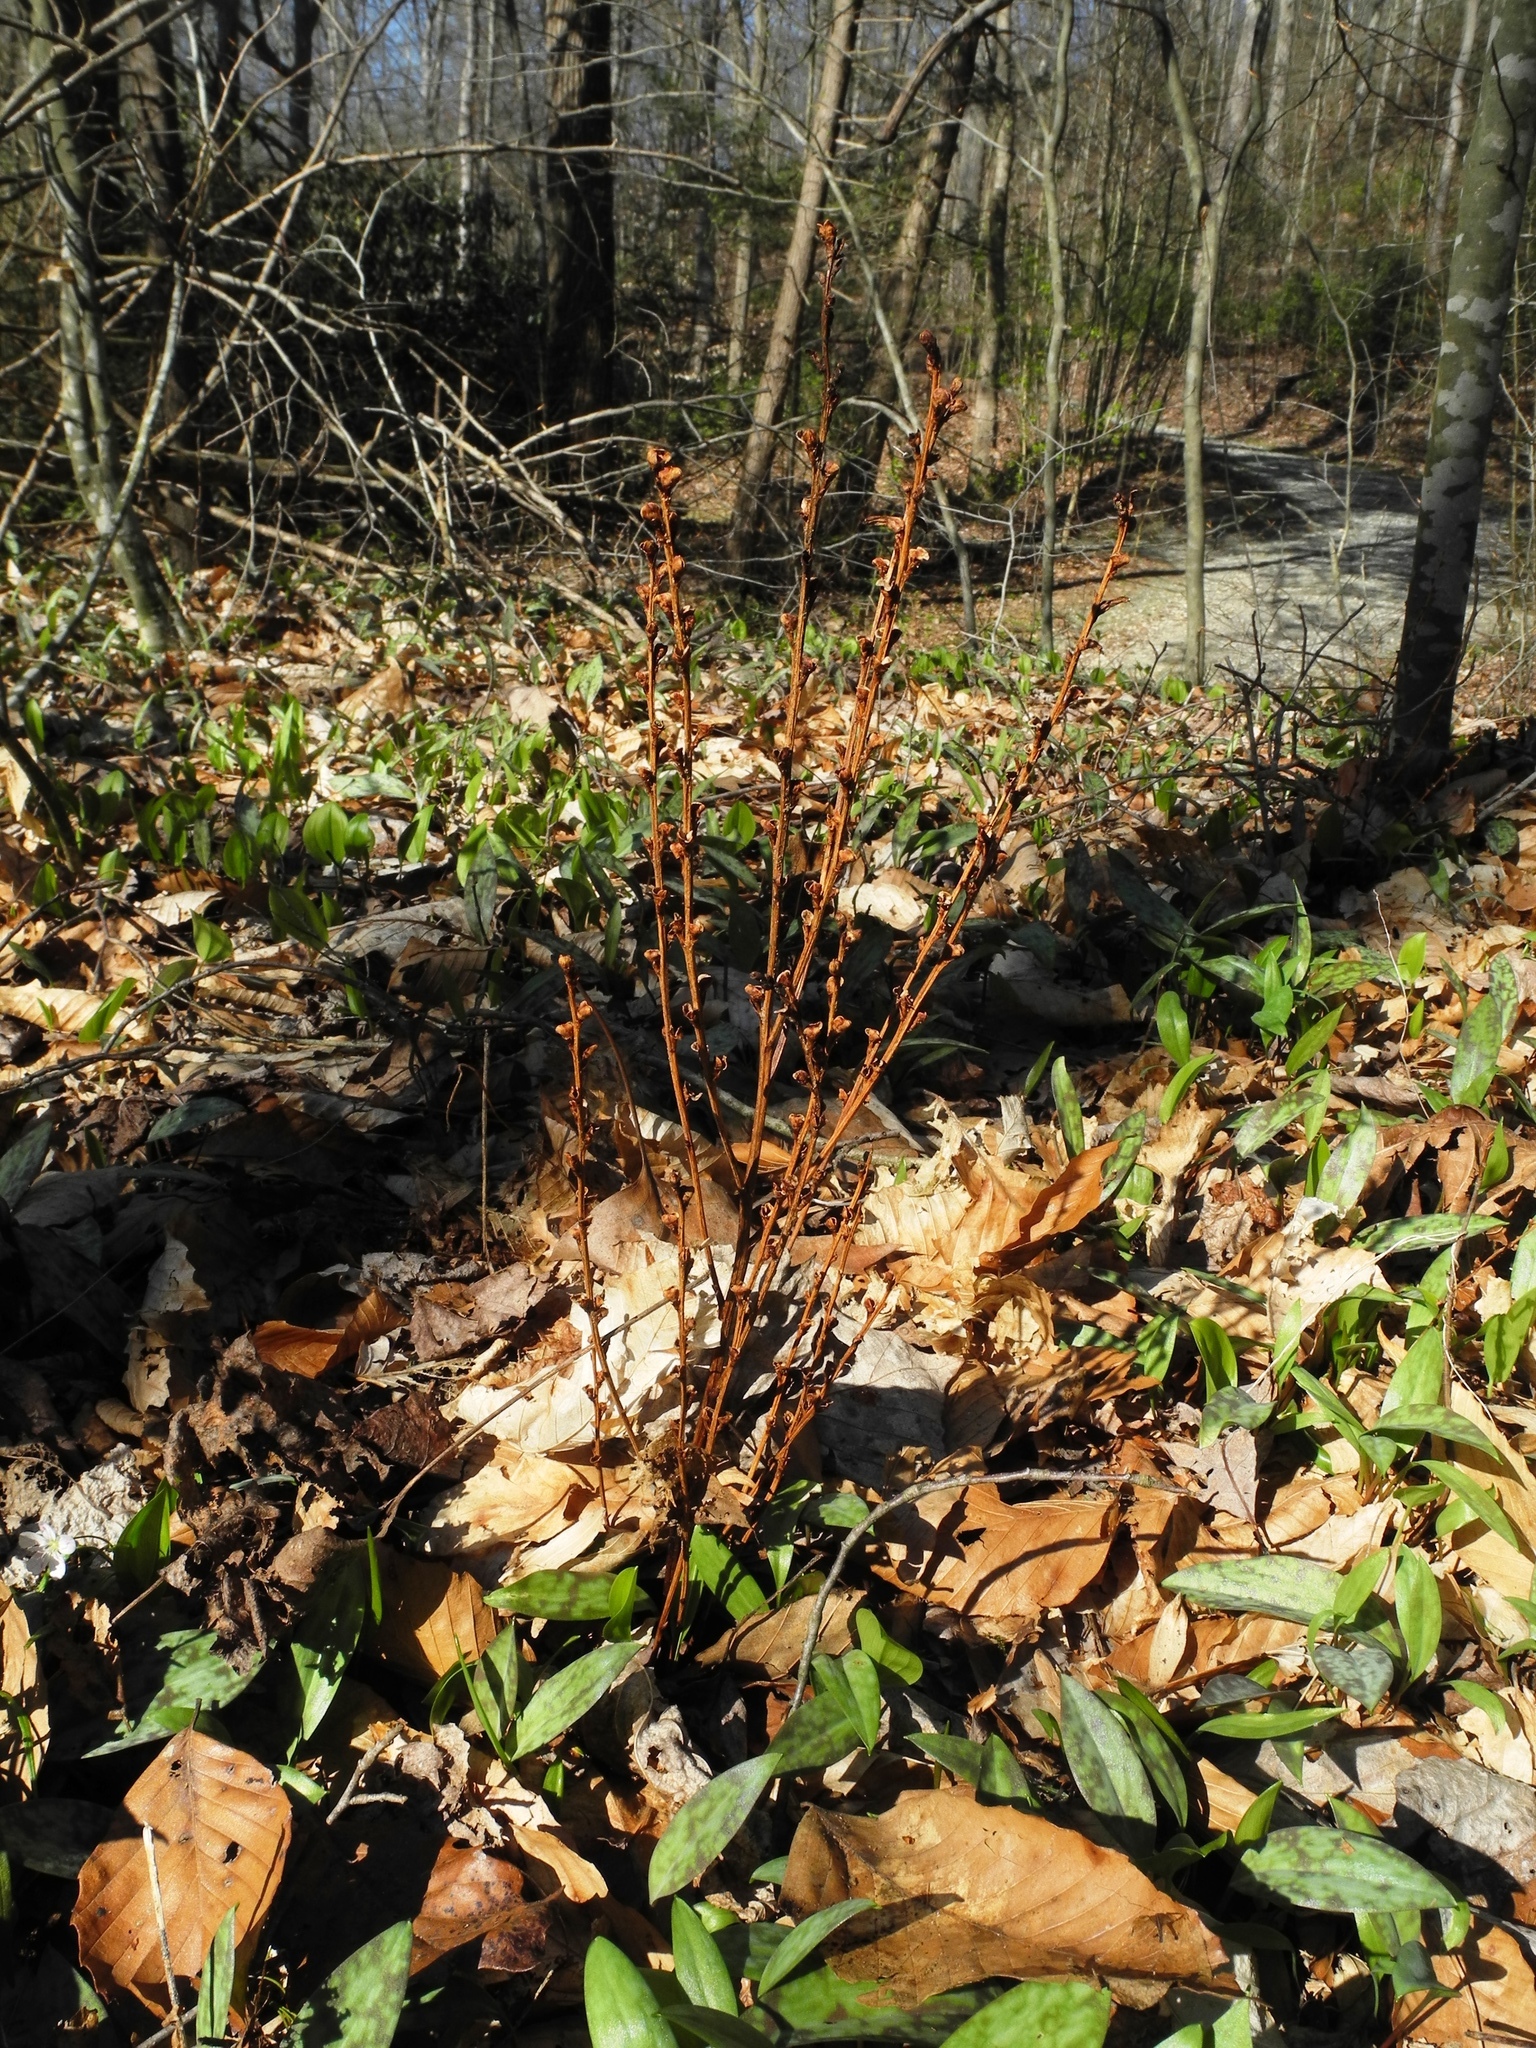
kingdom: Plantae
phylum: Tracheophyta
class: Magnoliopsida
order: Lamiales
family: Orobanchaceae
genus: Epifagus
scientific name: Epifagus virginiana
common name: Beechdrops
